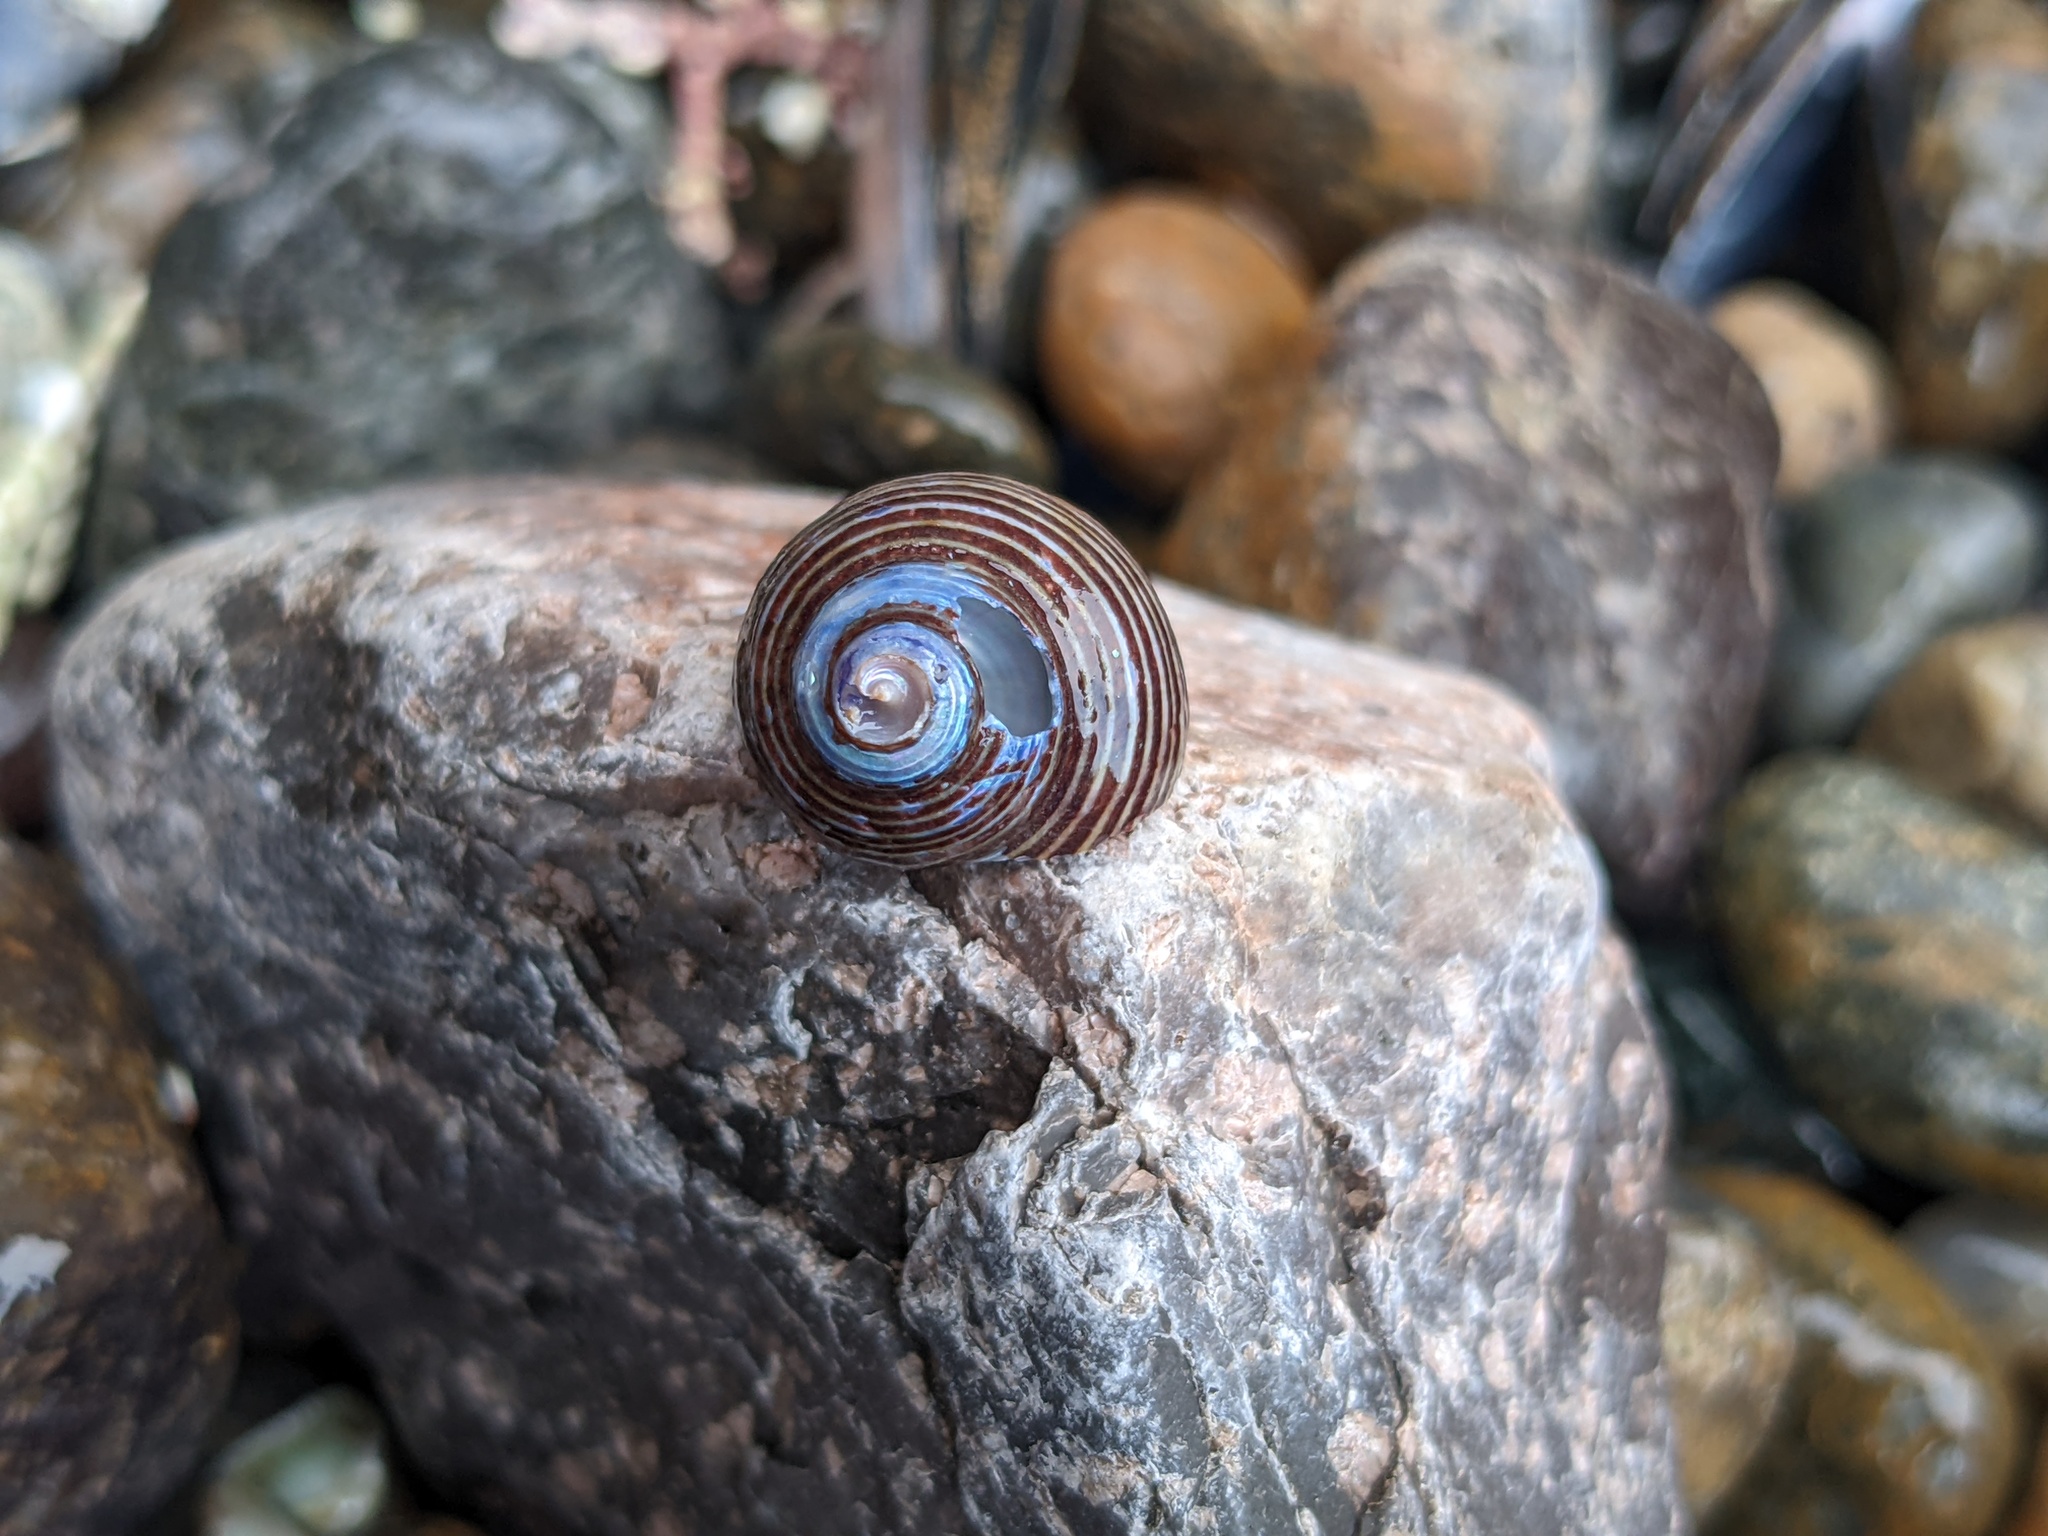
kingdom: Animalia
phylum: Mollusca
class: Gastropoda
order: Trochida
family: Calliostomatidae
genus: Calliostoma
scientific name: Calliostoma ligatum
